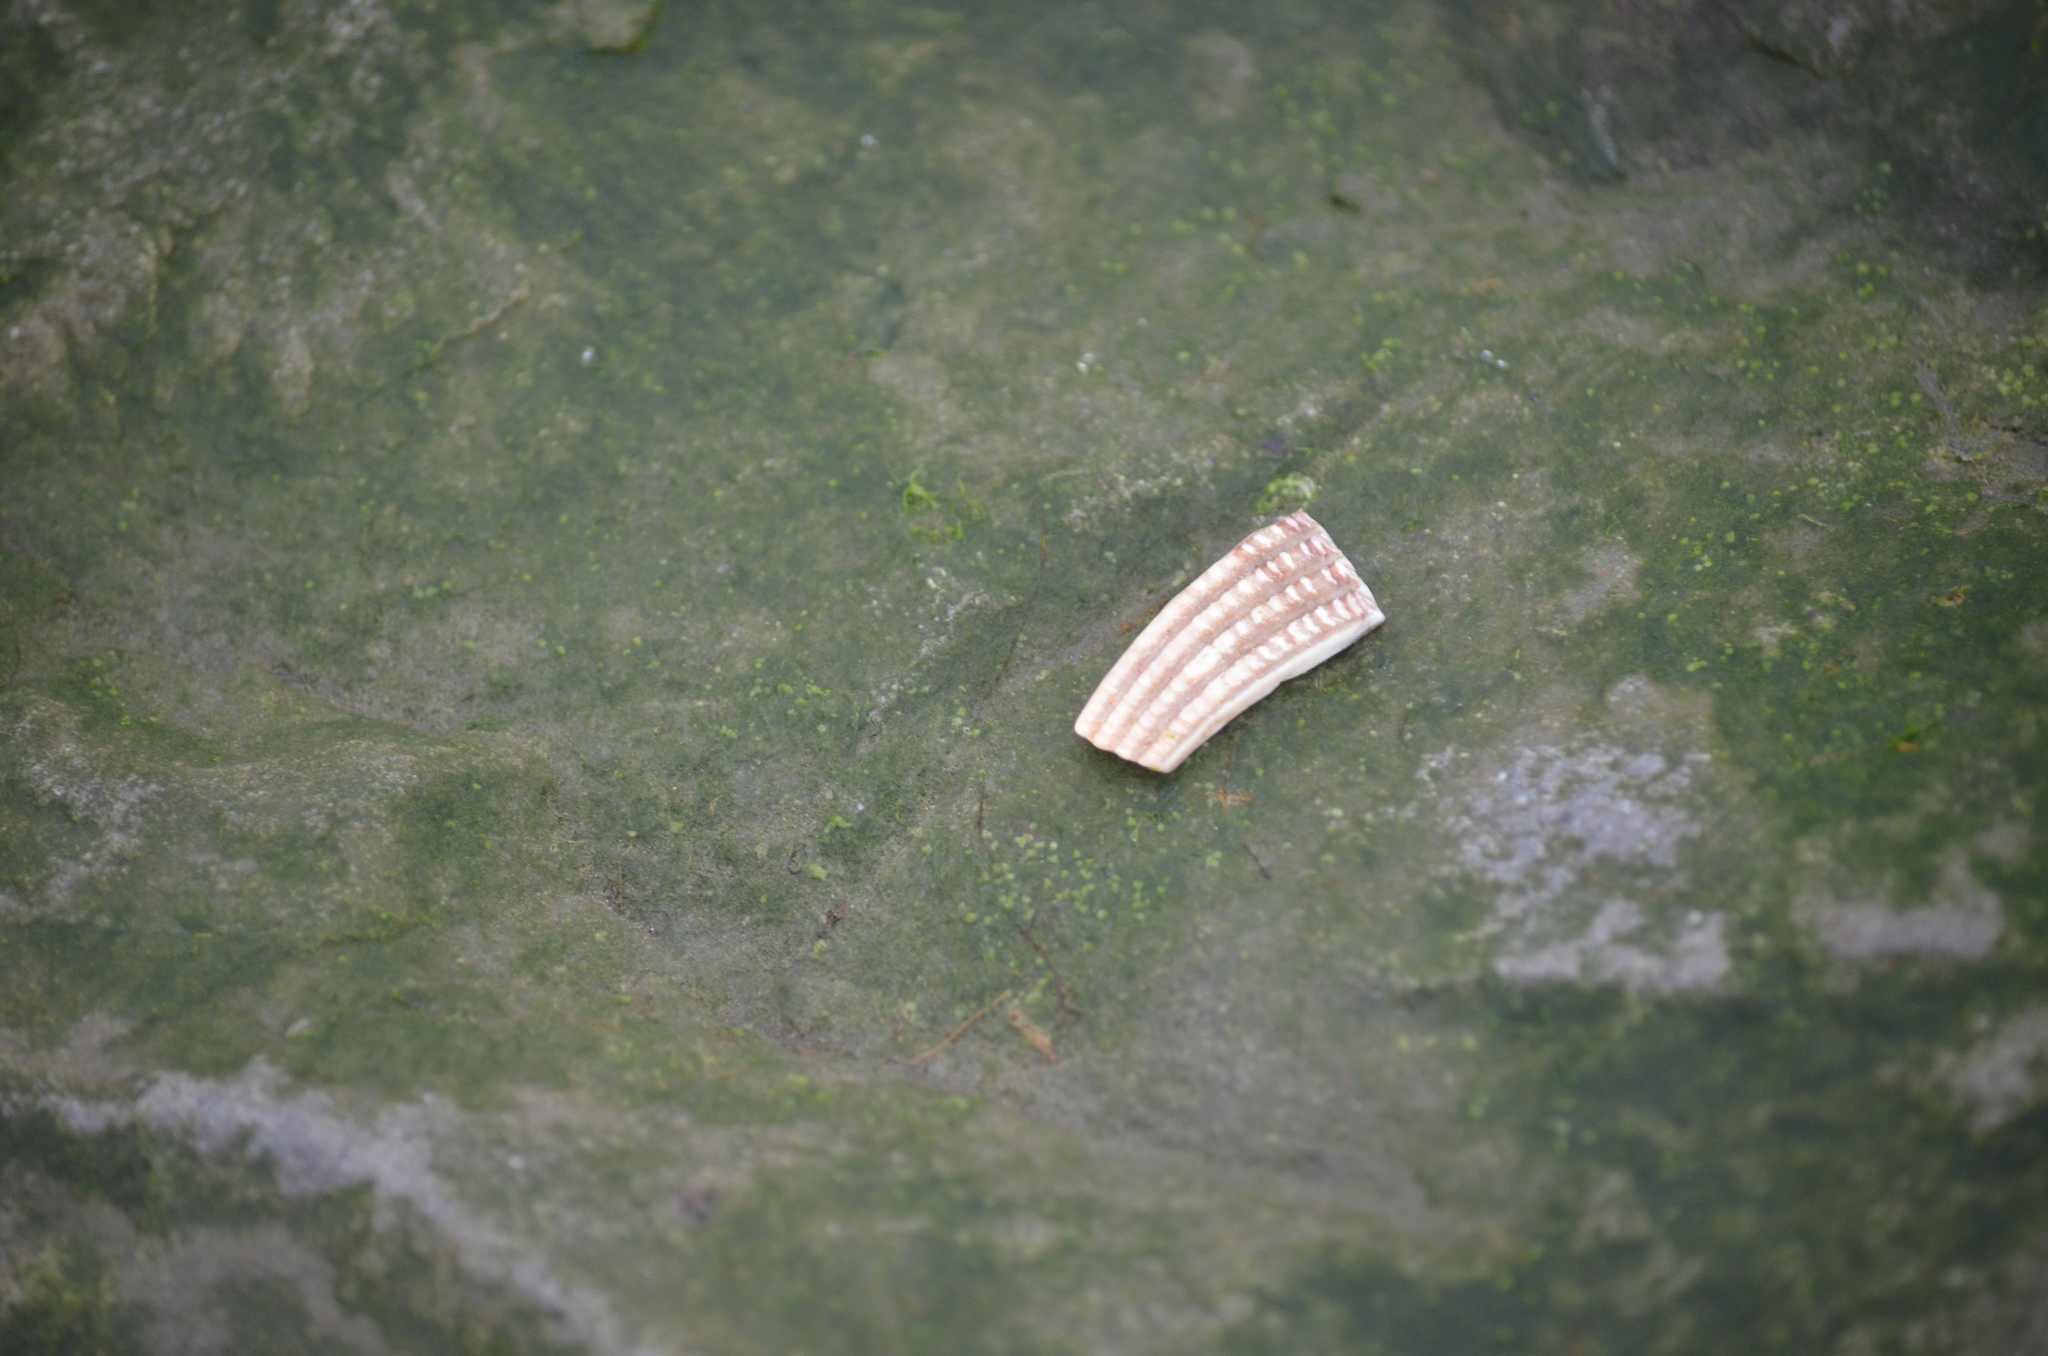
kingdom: Animalia
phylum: Mollusca
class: Bivalvia
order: Cardiida
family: Cardiidae
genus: Clinocardium
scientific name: Clinocardium nuttallii
